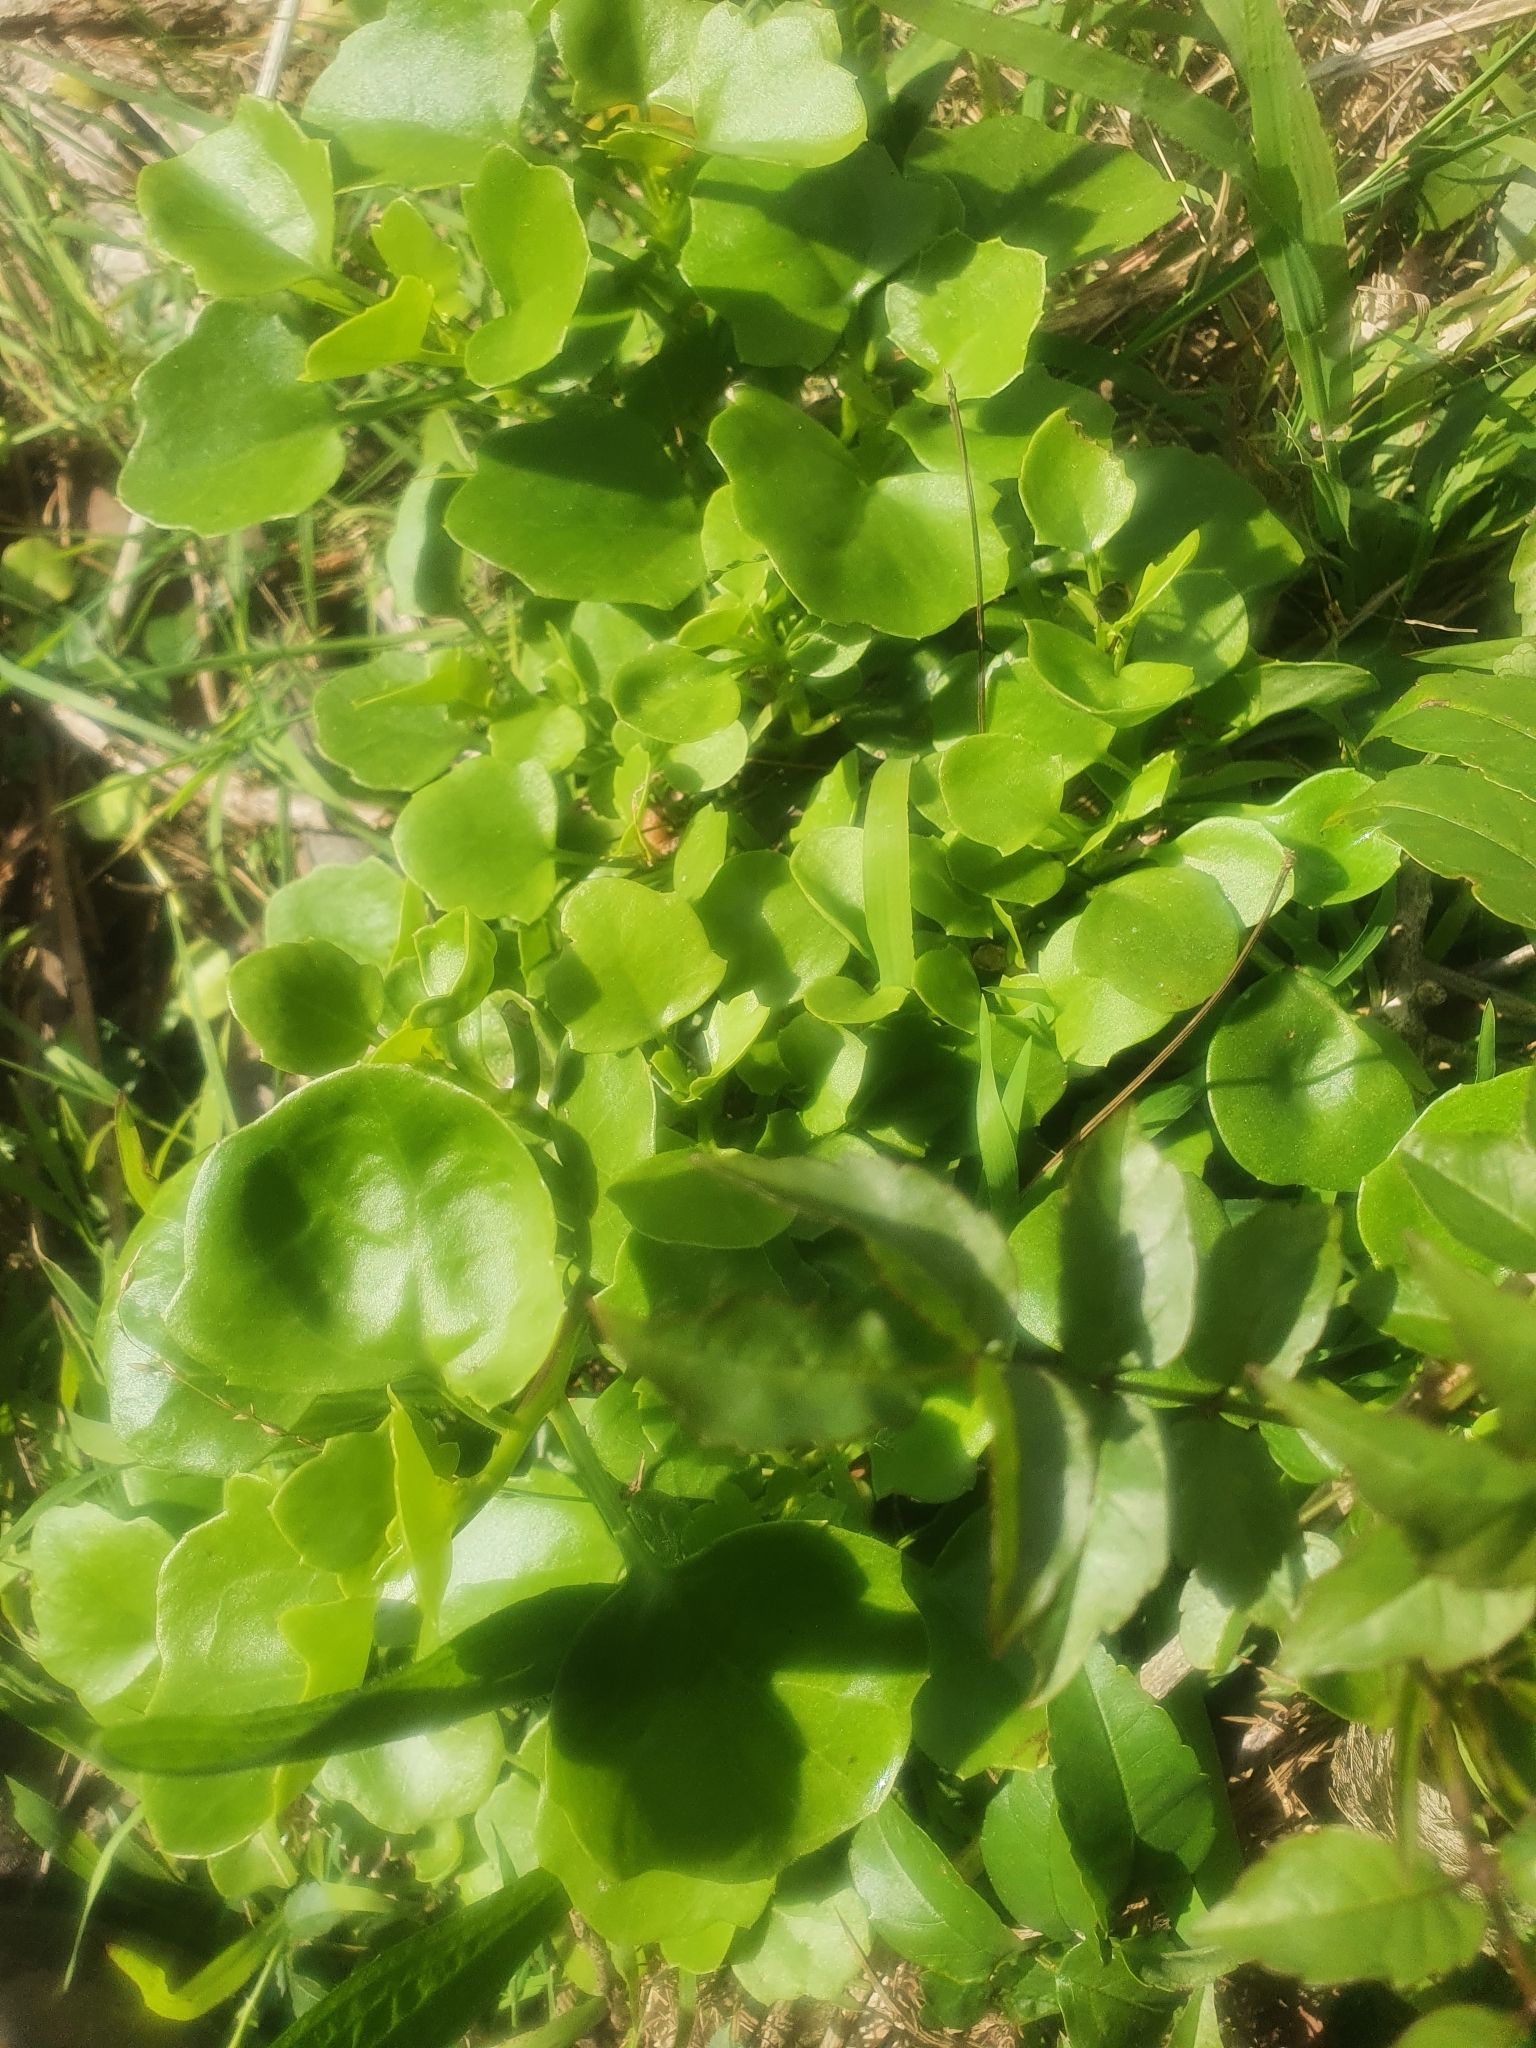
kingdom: Plantae
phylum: Tracheophyta
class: Magnoliopsida
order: Asterales
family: Asteraceae
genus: Senecio
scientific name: Senecio angulatus
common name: Climbing groundsel
